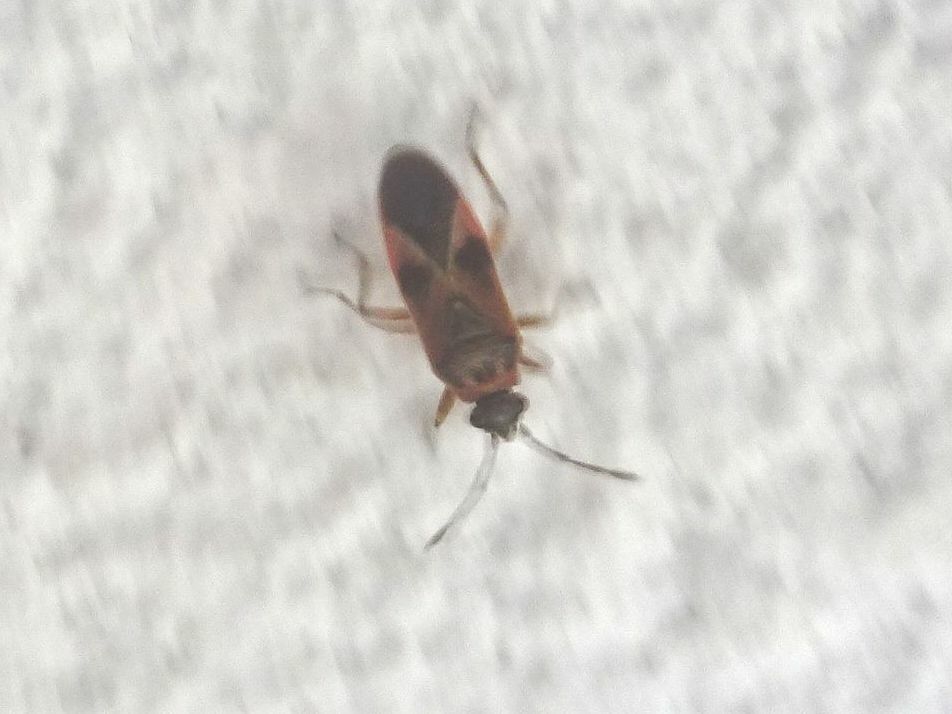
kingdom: Animalia
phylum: Arthropoda
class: Insecta
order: Hemiptera
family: Lygaeidae
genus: Arocatus
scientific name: Arocatus roeselii
